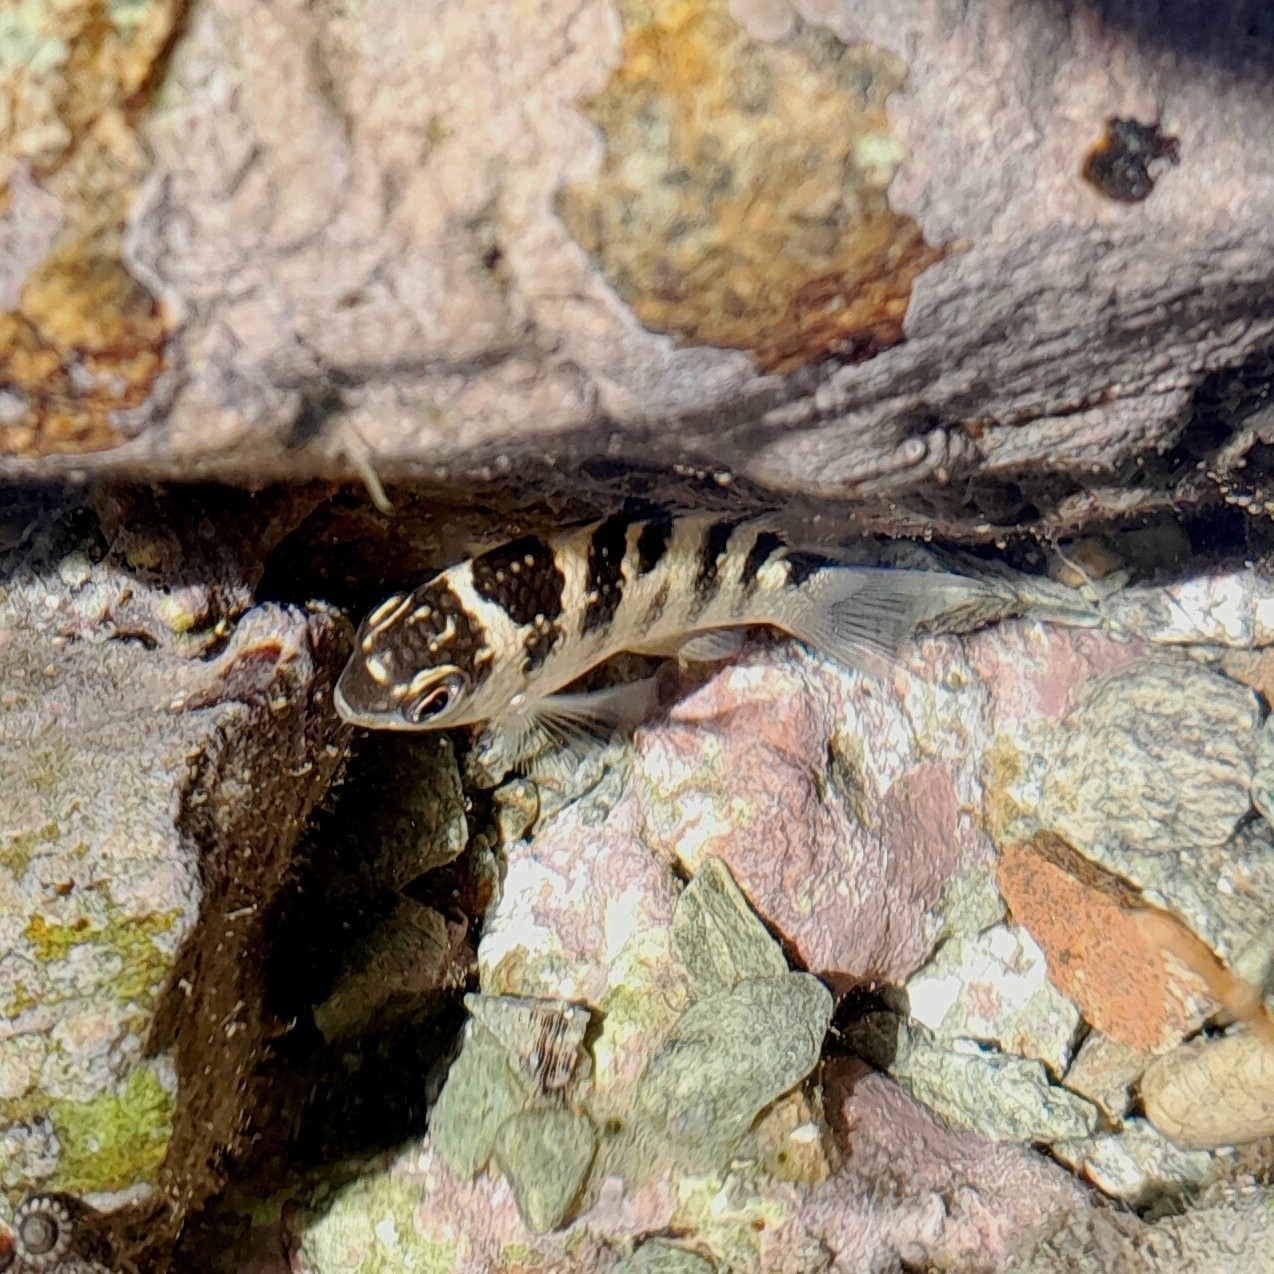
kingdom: Animalia
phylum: Chordata
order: Perciformes
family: Pomacentridae
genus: Abudefduf
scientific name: Abudefduf taurus
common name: Night sergeant
